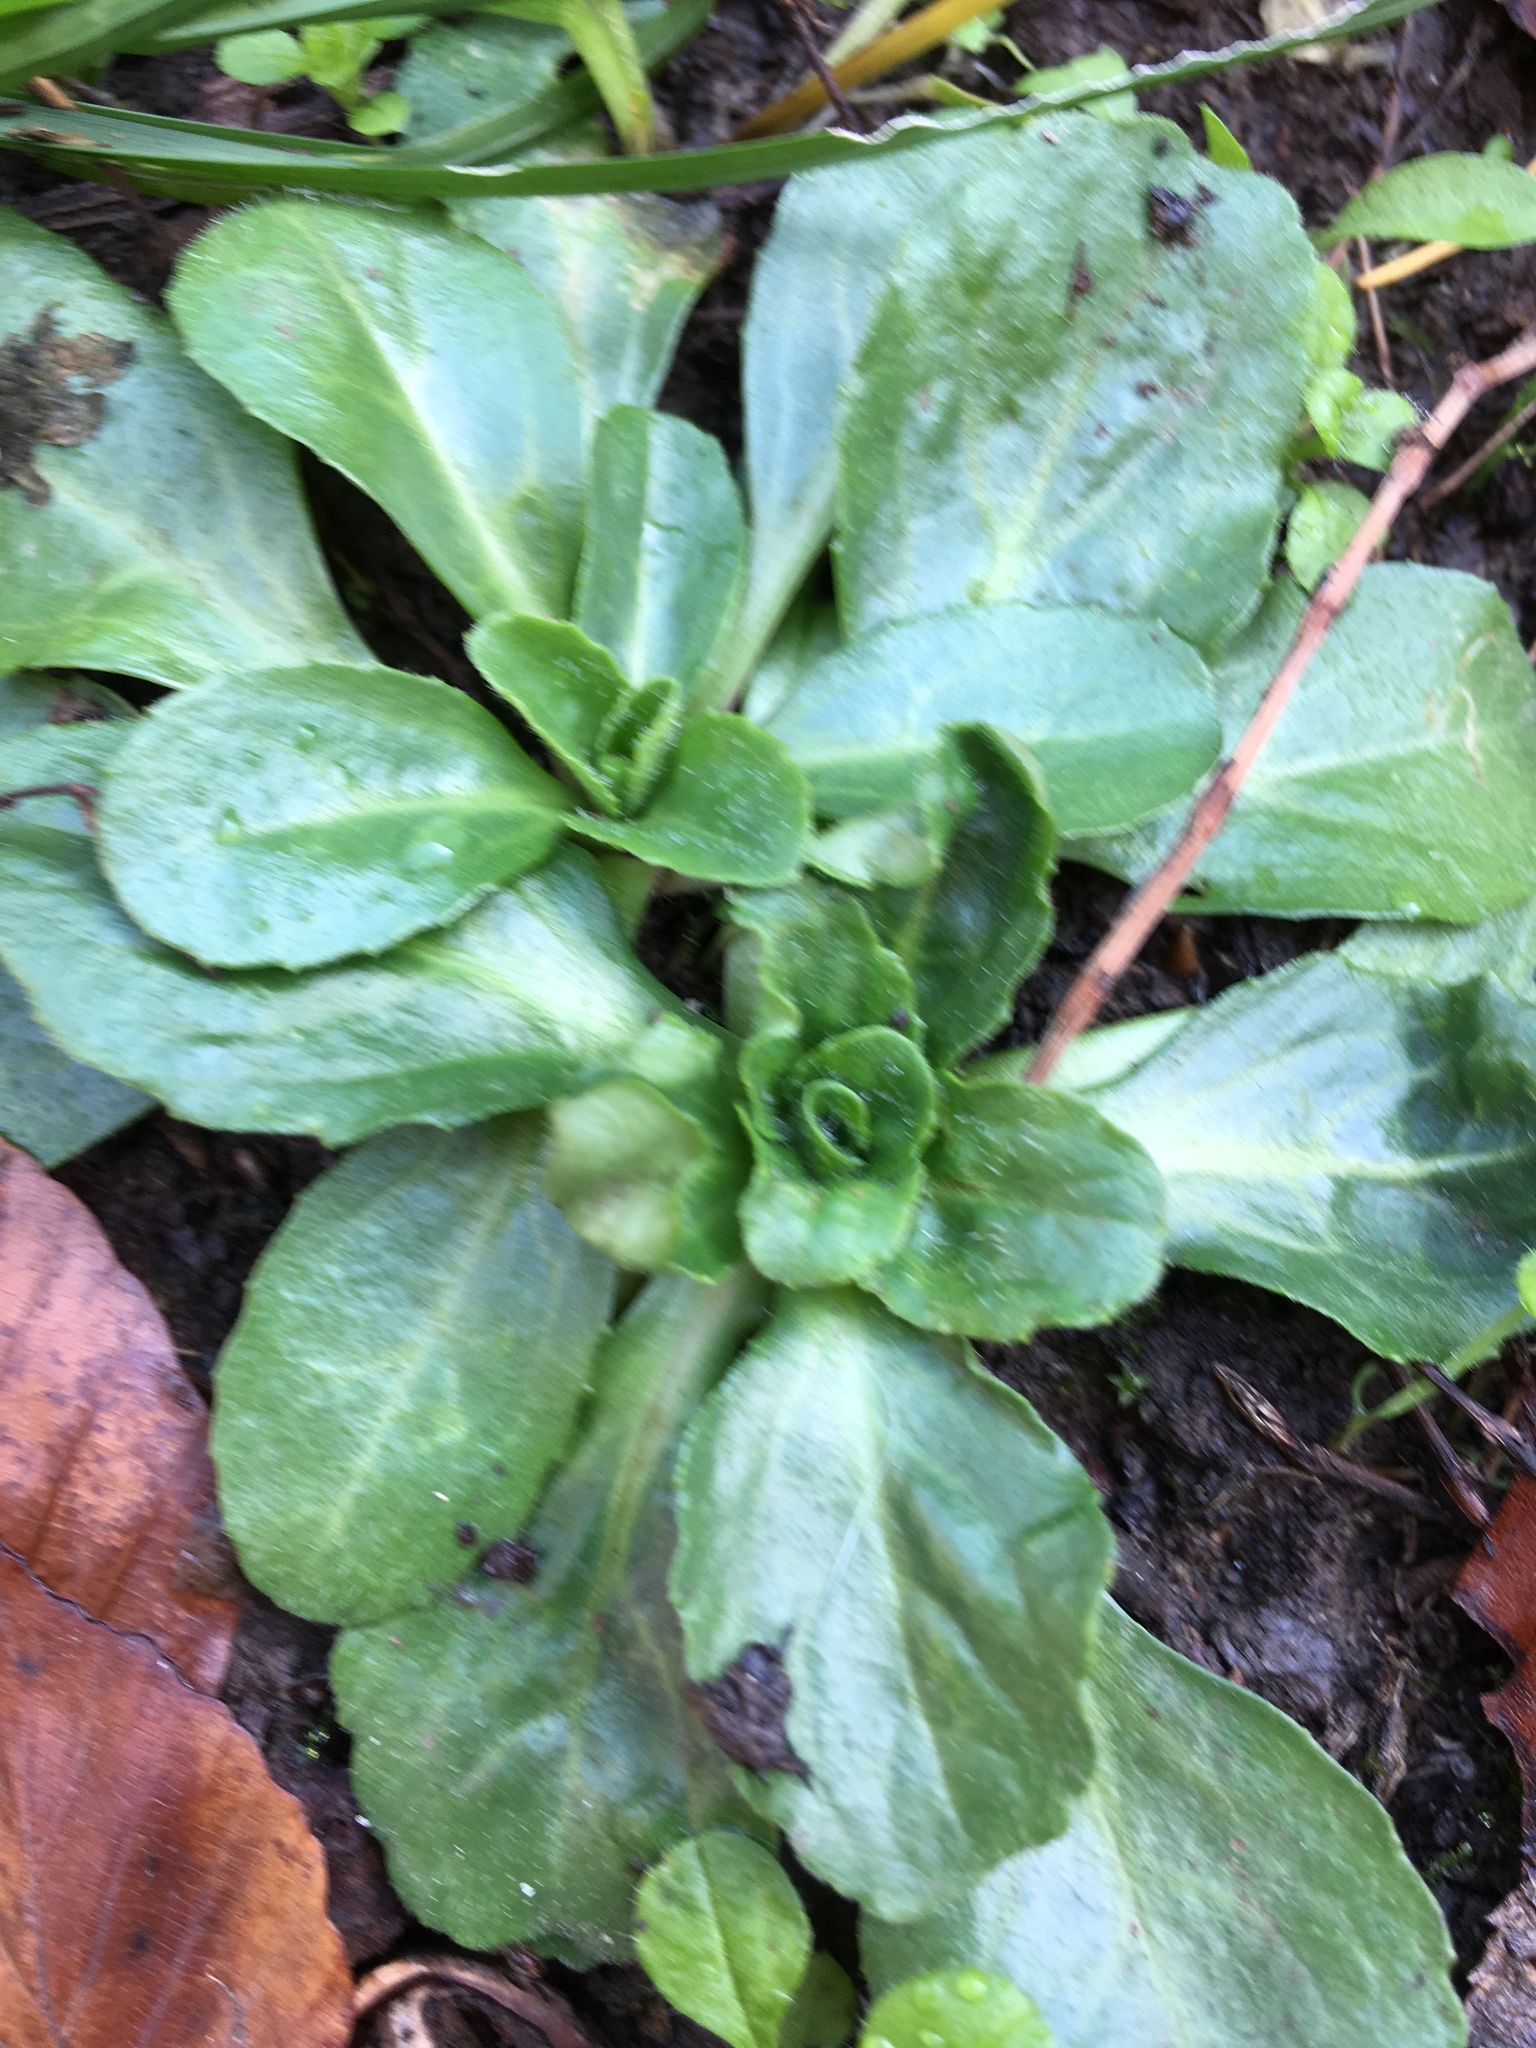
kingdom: Plantae
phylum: Tracheophyta
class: Magnoliopsida
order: Asterales
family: Asteraceae
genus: Bellis
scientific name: Bellis perennis
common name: Lawndaisy
